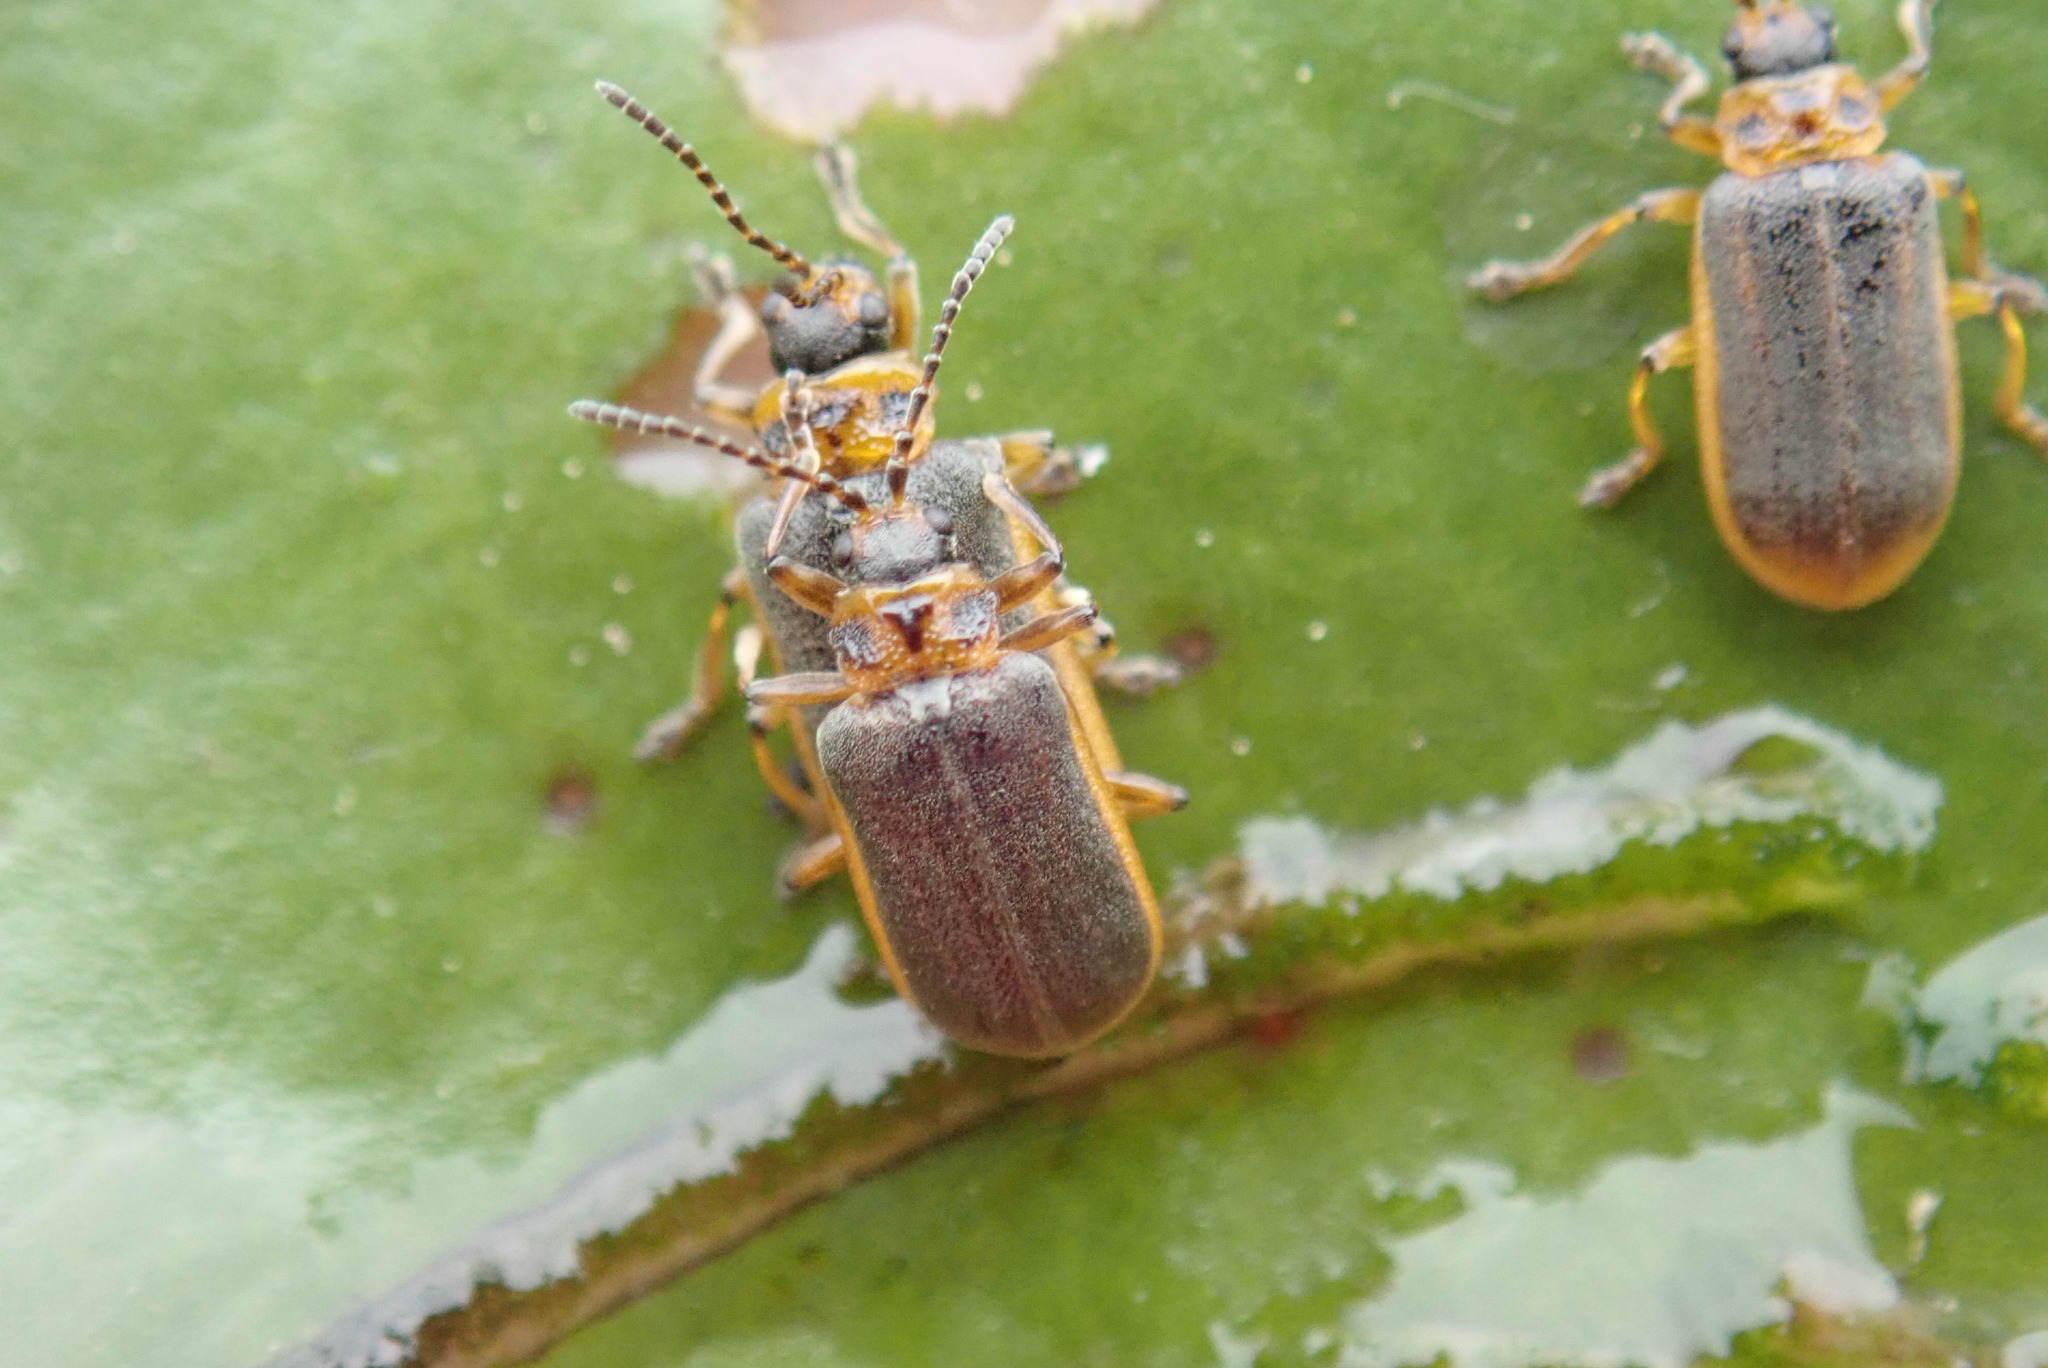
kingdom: Animalia
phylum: Arthropoda
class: Insecta
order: Coleoptera
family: Chrysomelidae
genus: Galerucella
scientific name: Galerucella nymphaeae
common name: Leaf beetle
